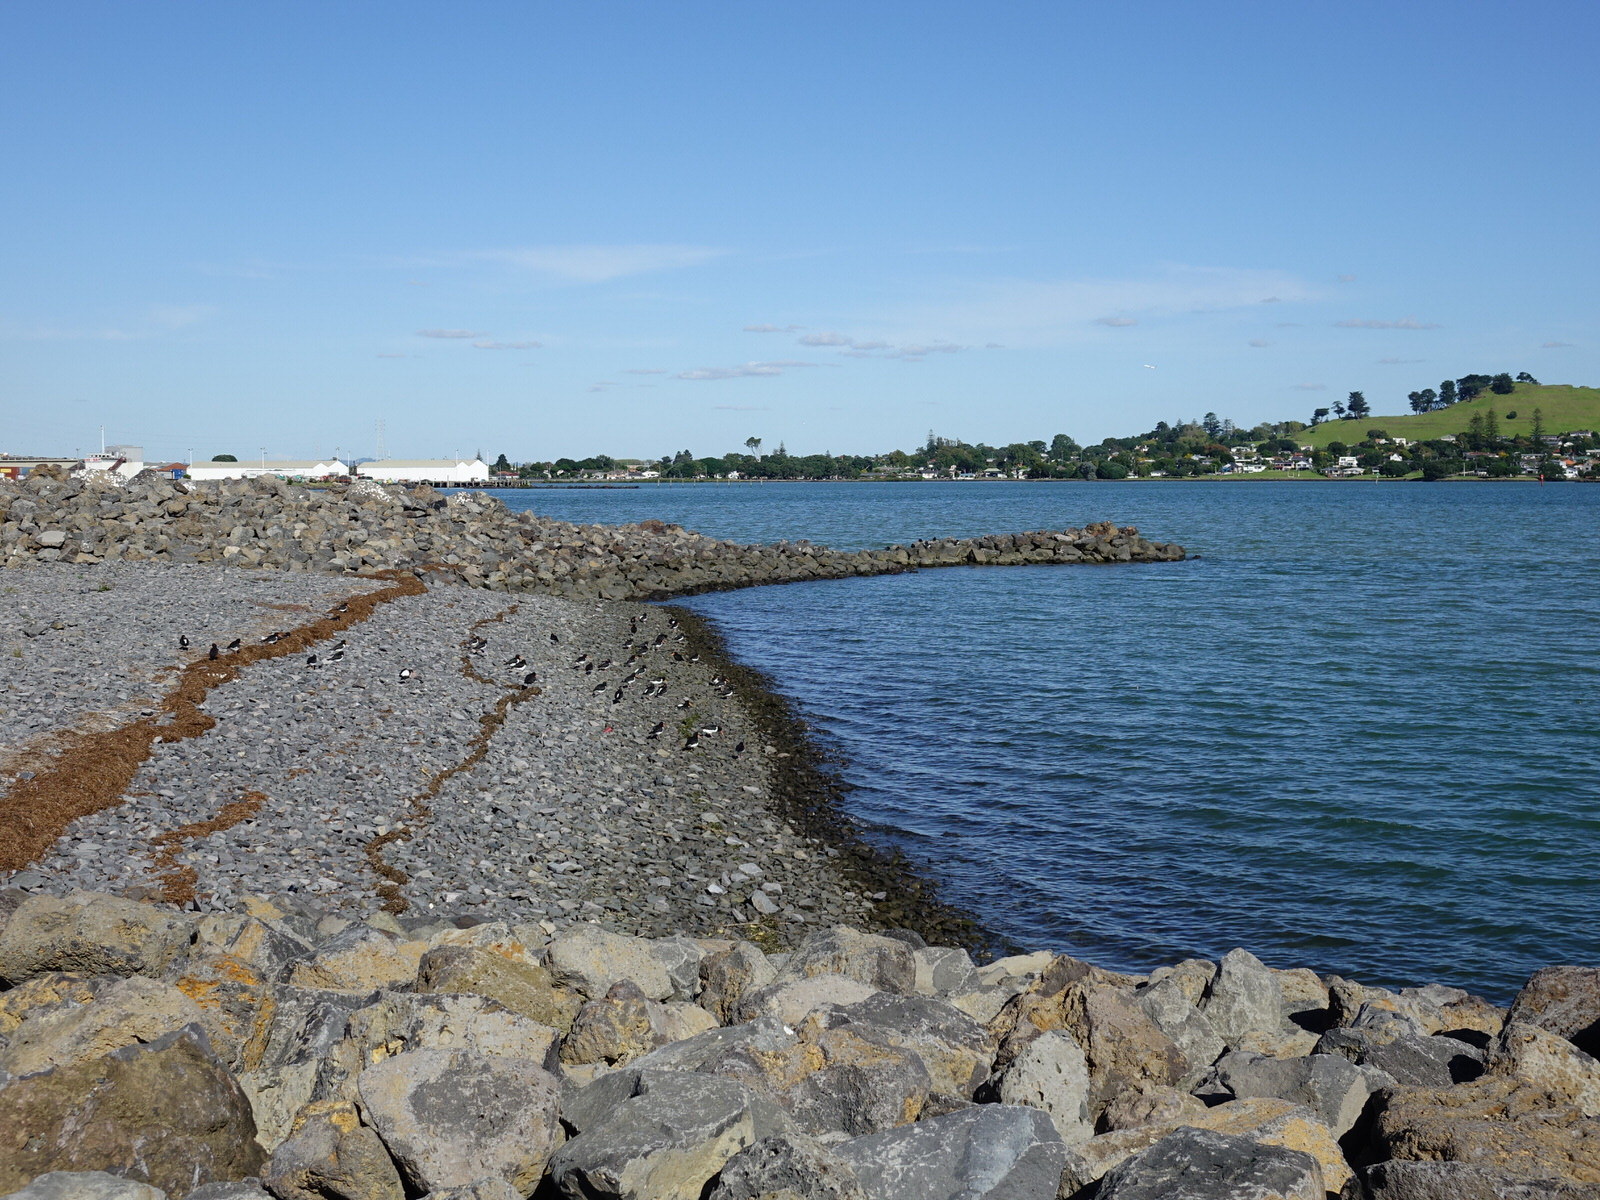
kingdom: Animalia
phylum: Chordata
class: Aves
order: Charadriiformes
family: Haematopodidae
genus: Haematopus
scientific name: Haematopus finschi
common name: South island oystercatcher
